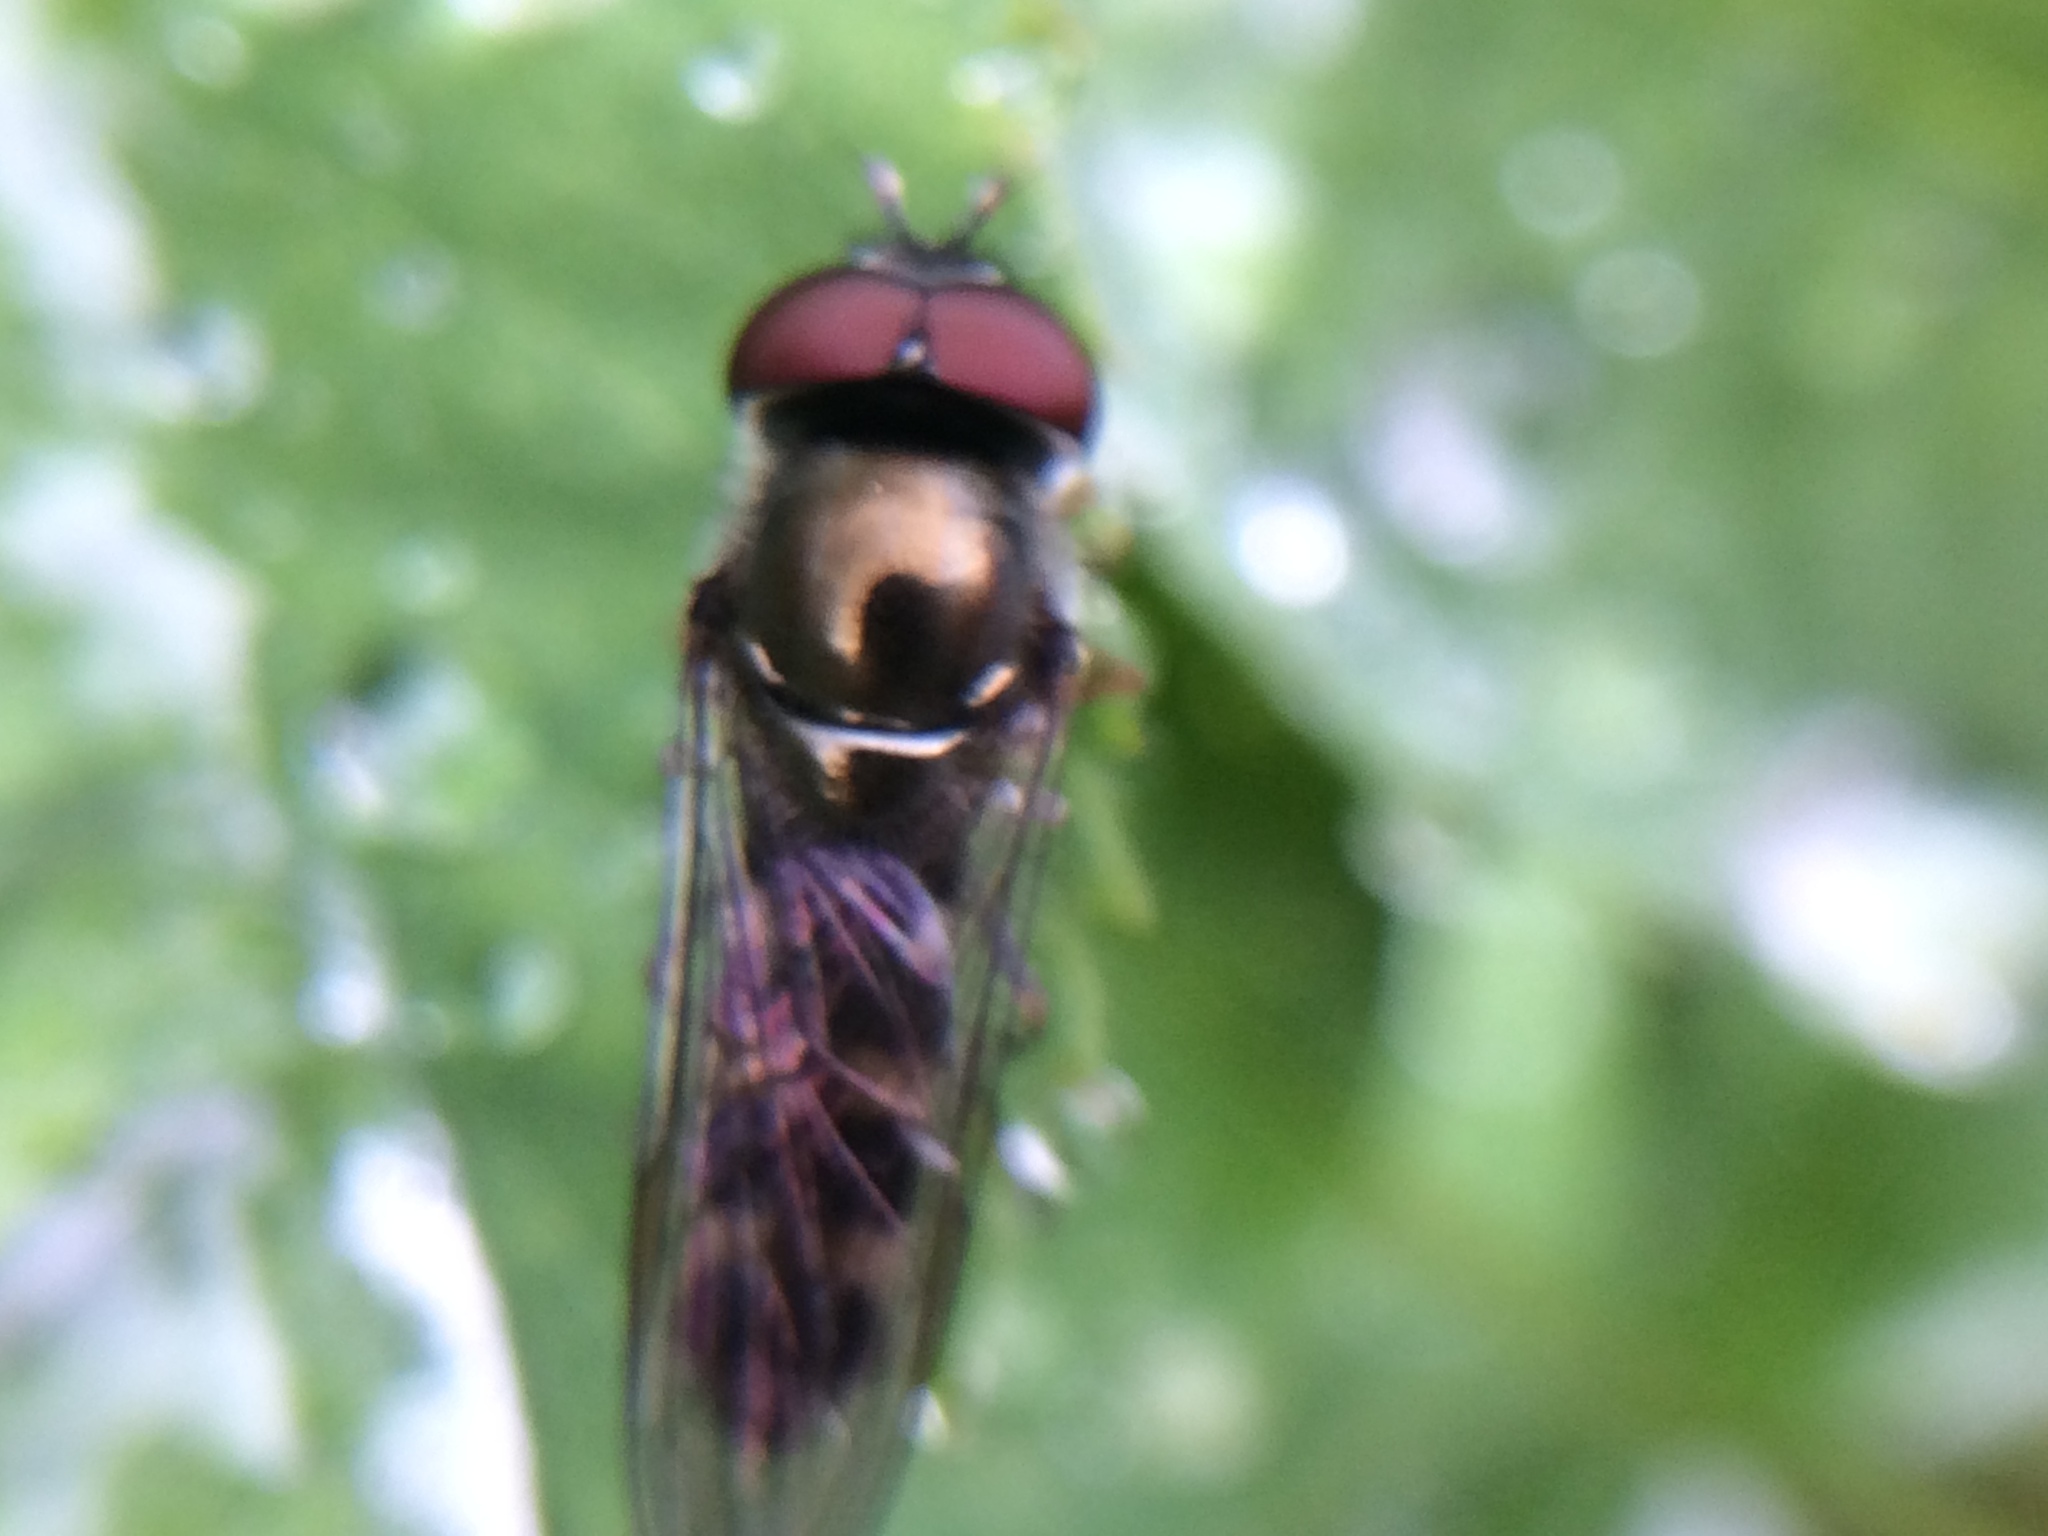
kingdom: Animalia
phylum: Arthropoda
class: Insecta
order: Diptera
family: Syrphidae
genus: Platycheirus
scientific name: Platycheirus trichopus
